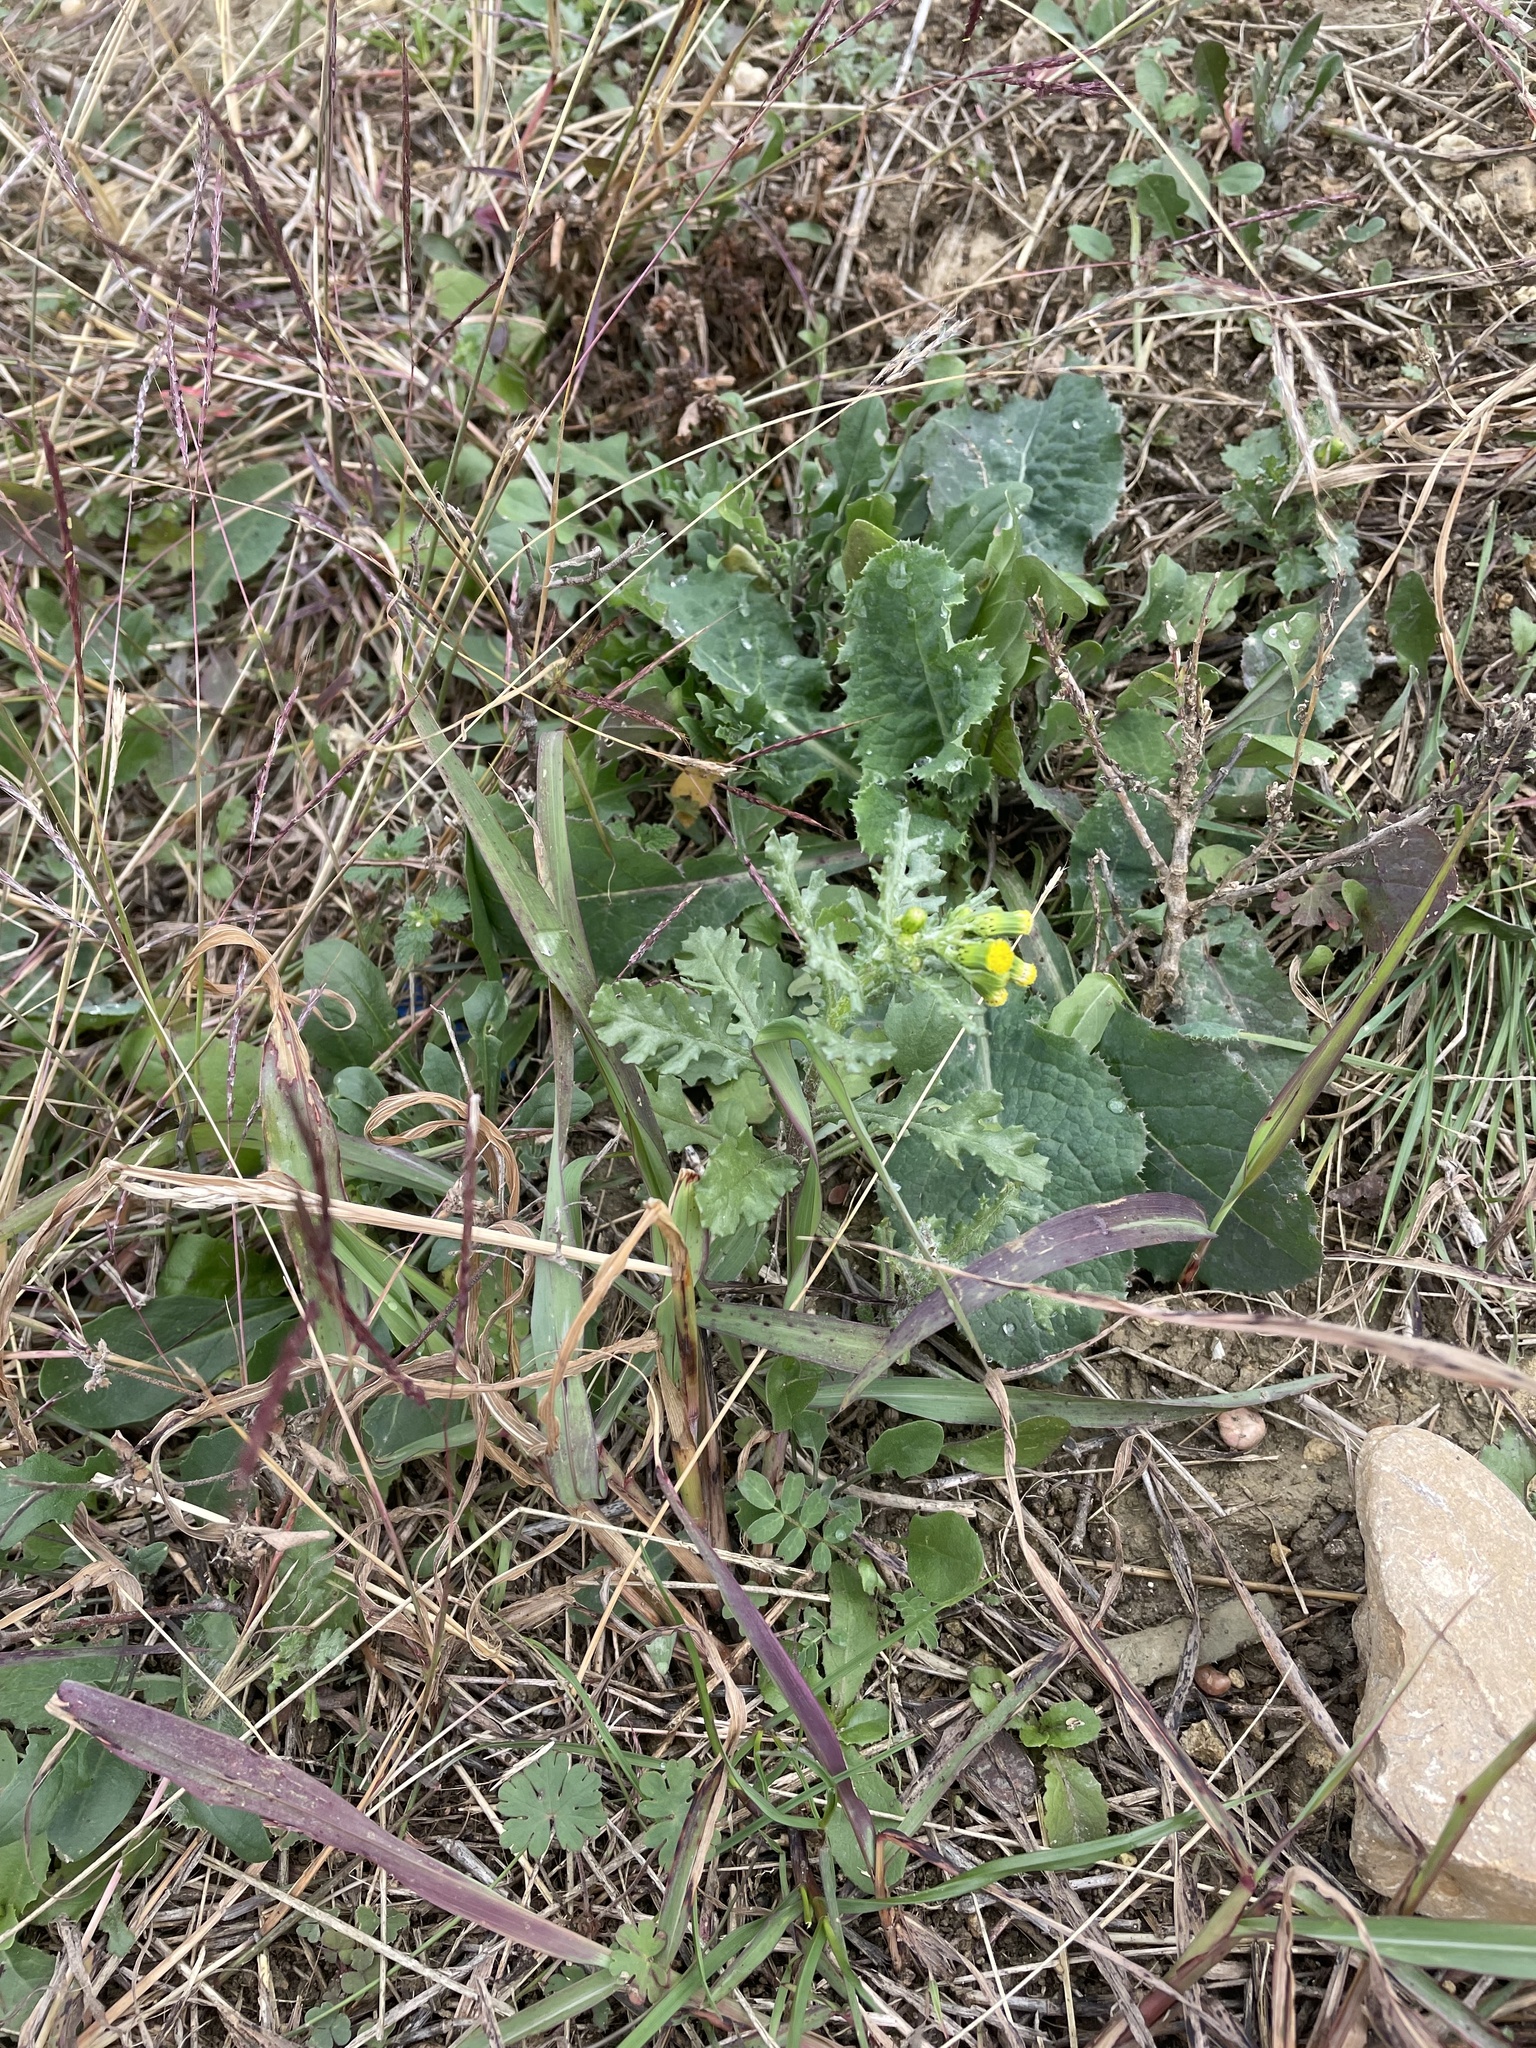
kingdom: Plantae
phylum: Tracheophyta
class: Magnoliopsida
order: Asterales
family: Asteraceae
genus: Senecio
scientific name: Senecio vulgaris
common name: Old-man-in-the-spring
